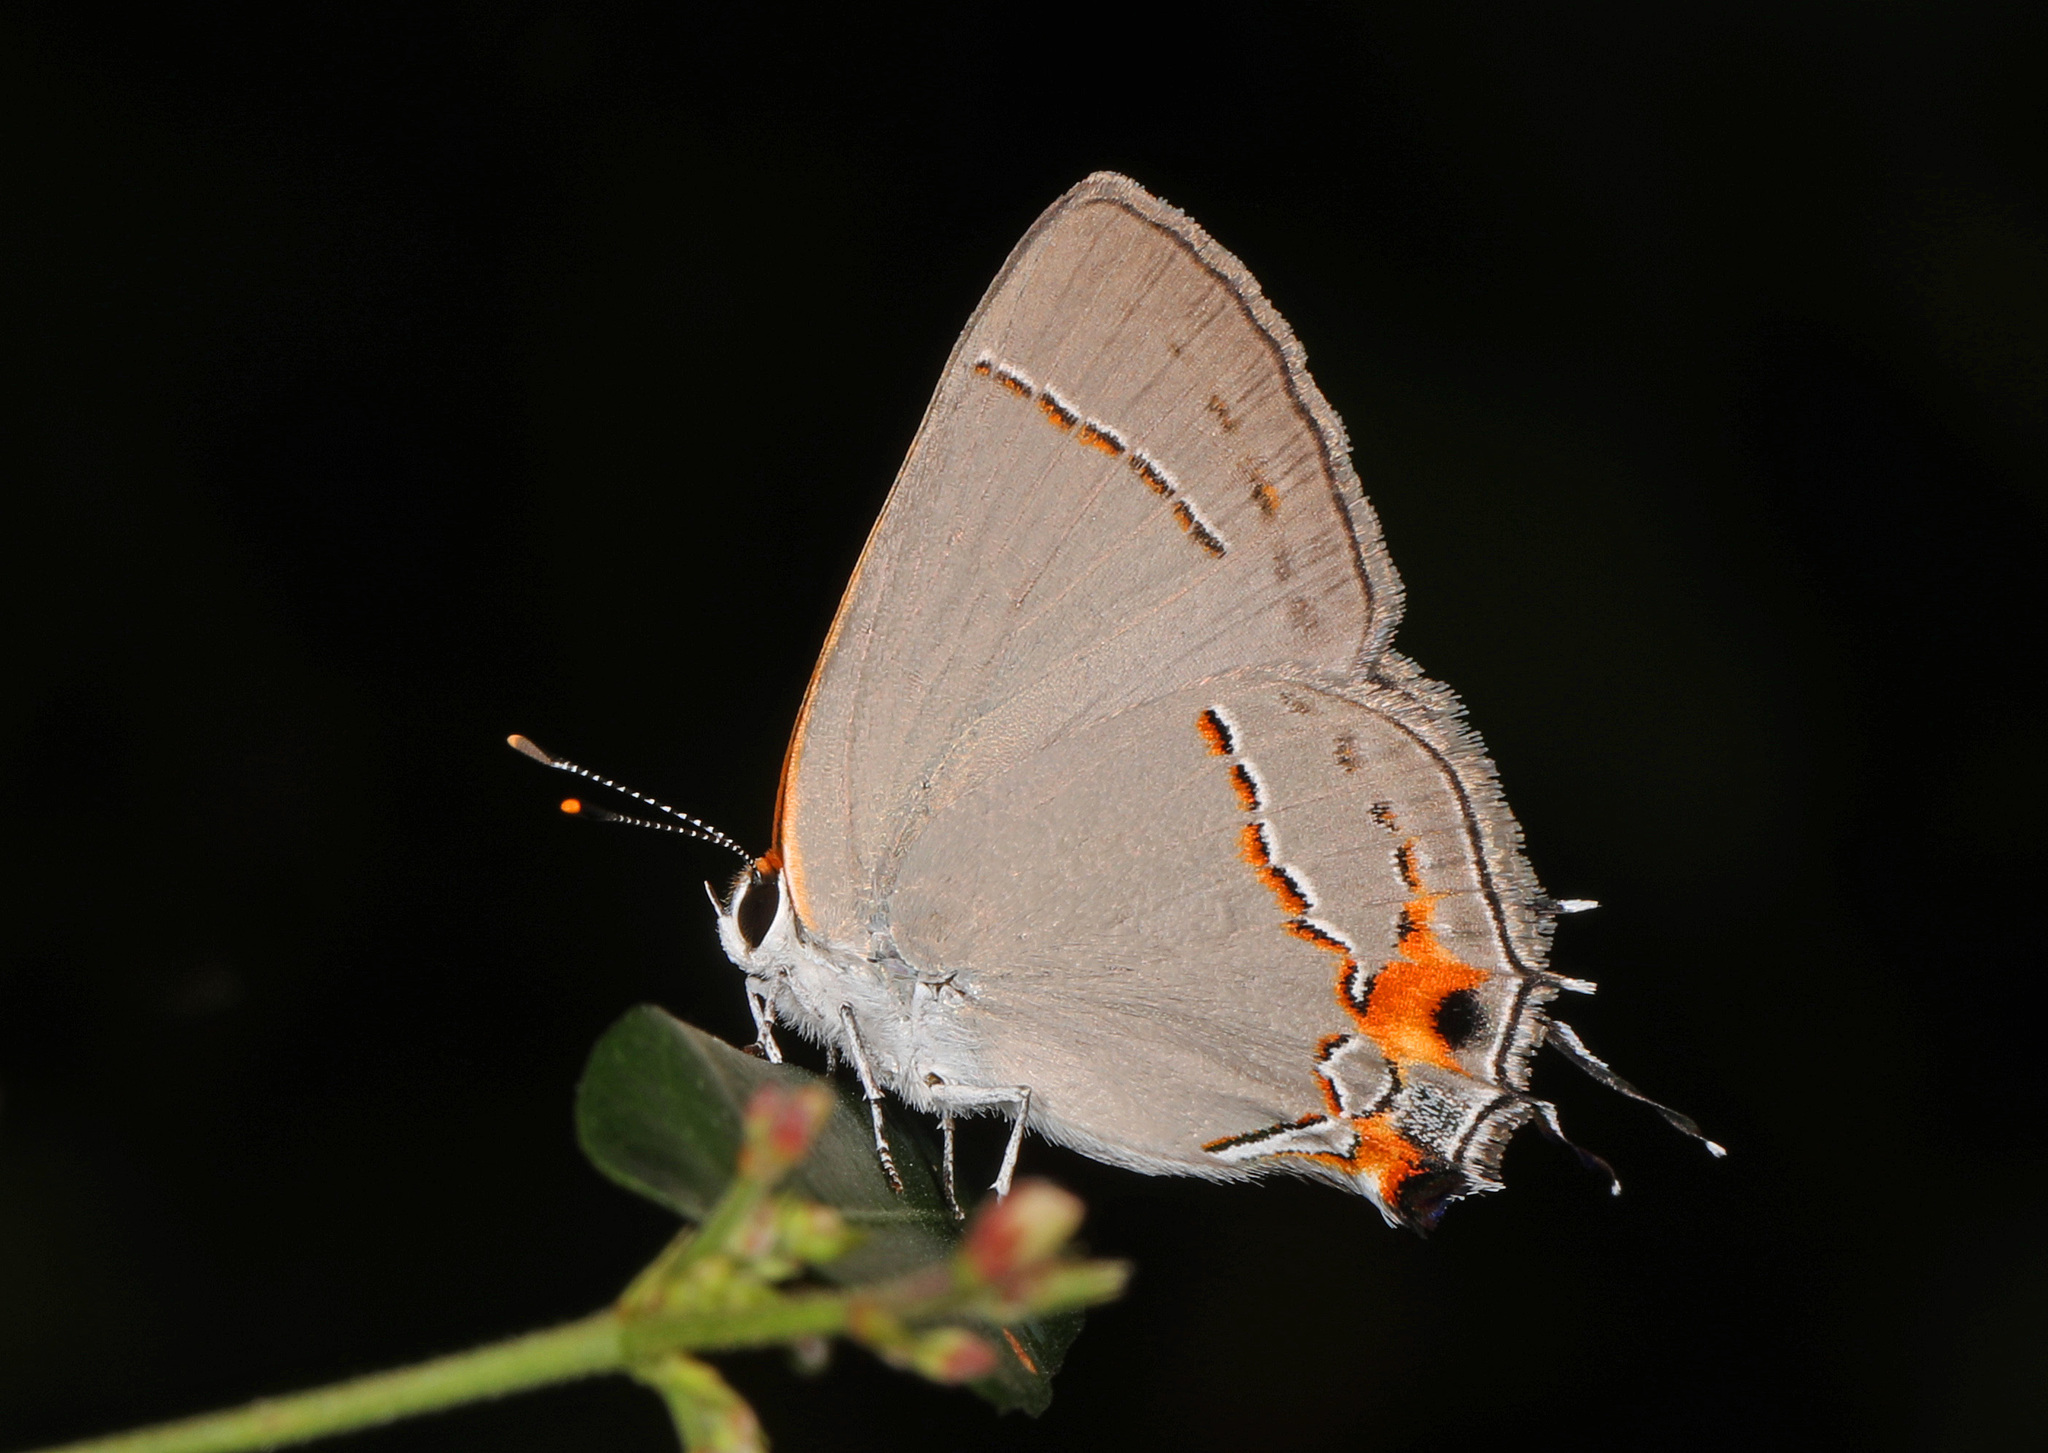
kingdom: Animalia
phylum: Arthropoda
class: Insecta
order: Lepidoptera
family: Lycaenidae
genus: Strymon
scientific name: Strymon melinus
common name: Gray hairstreak
